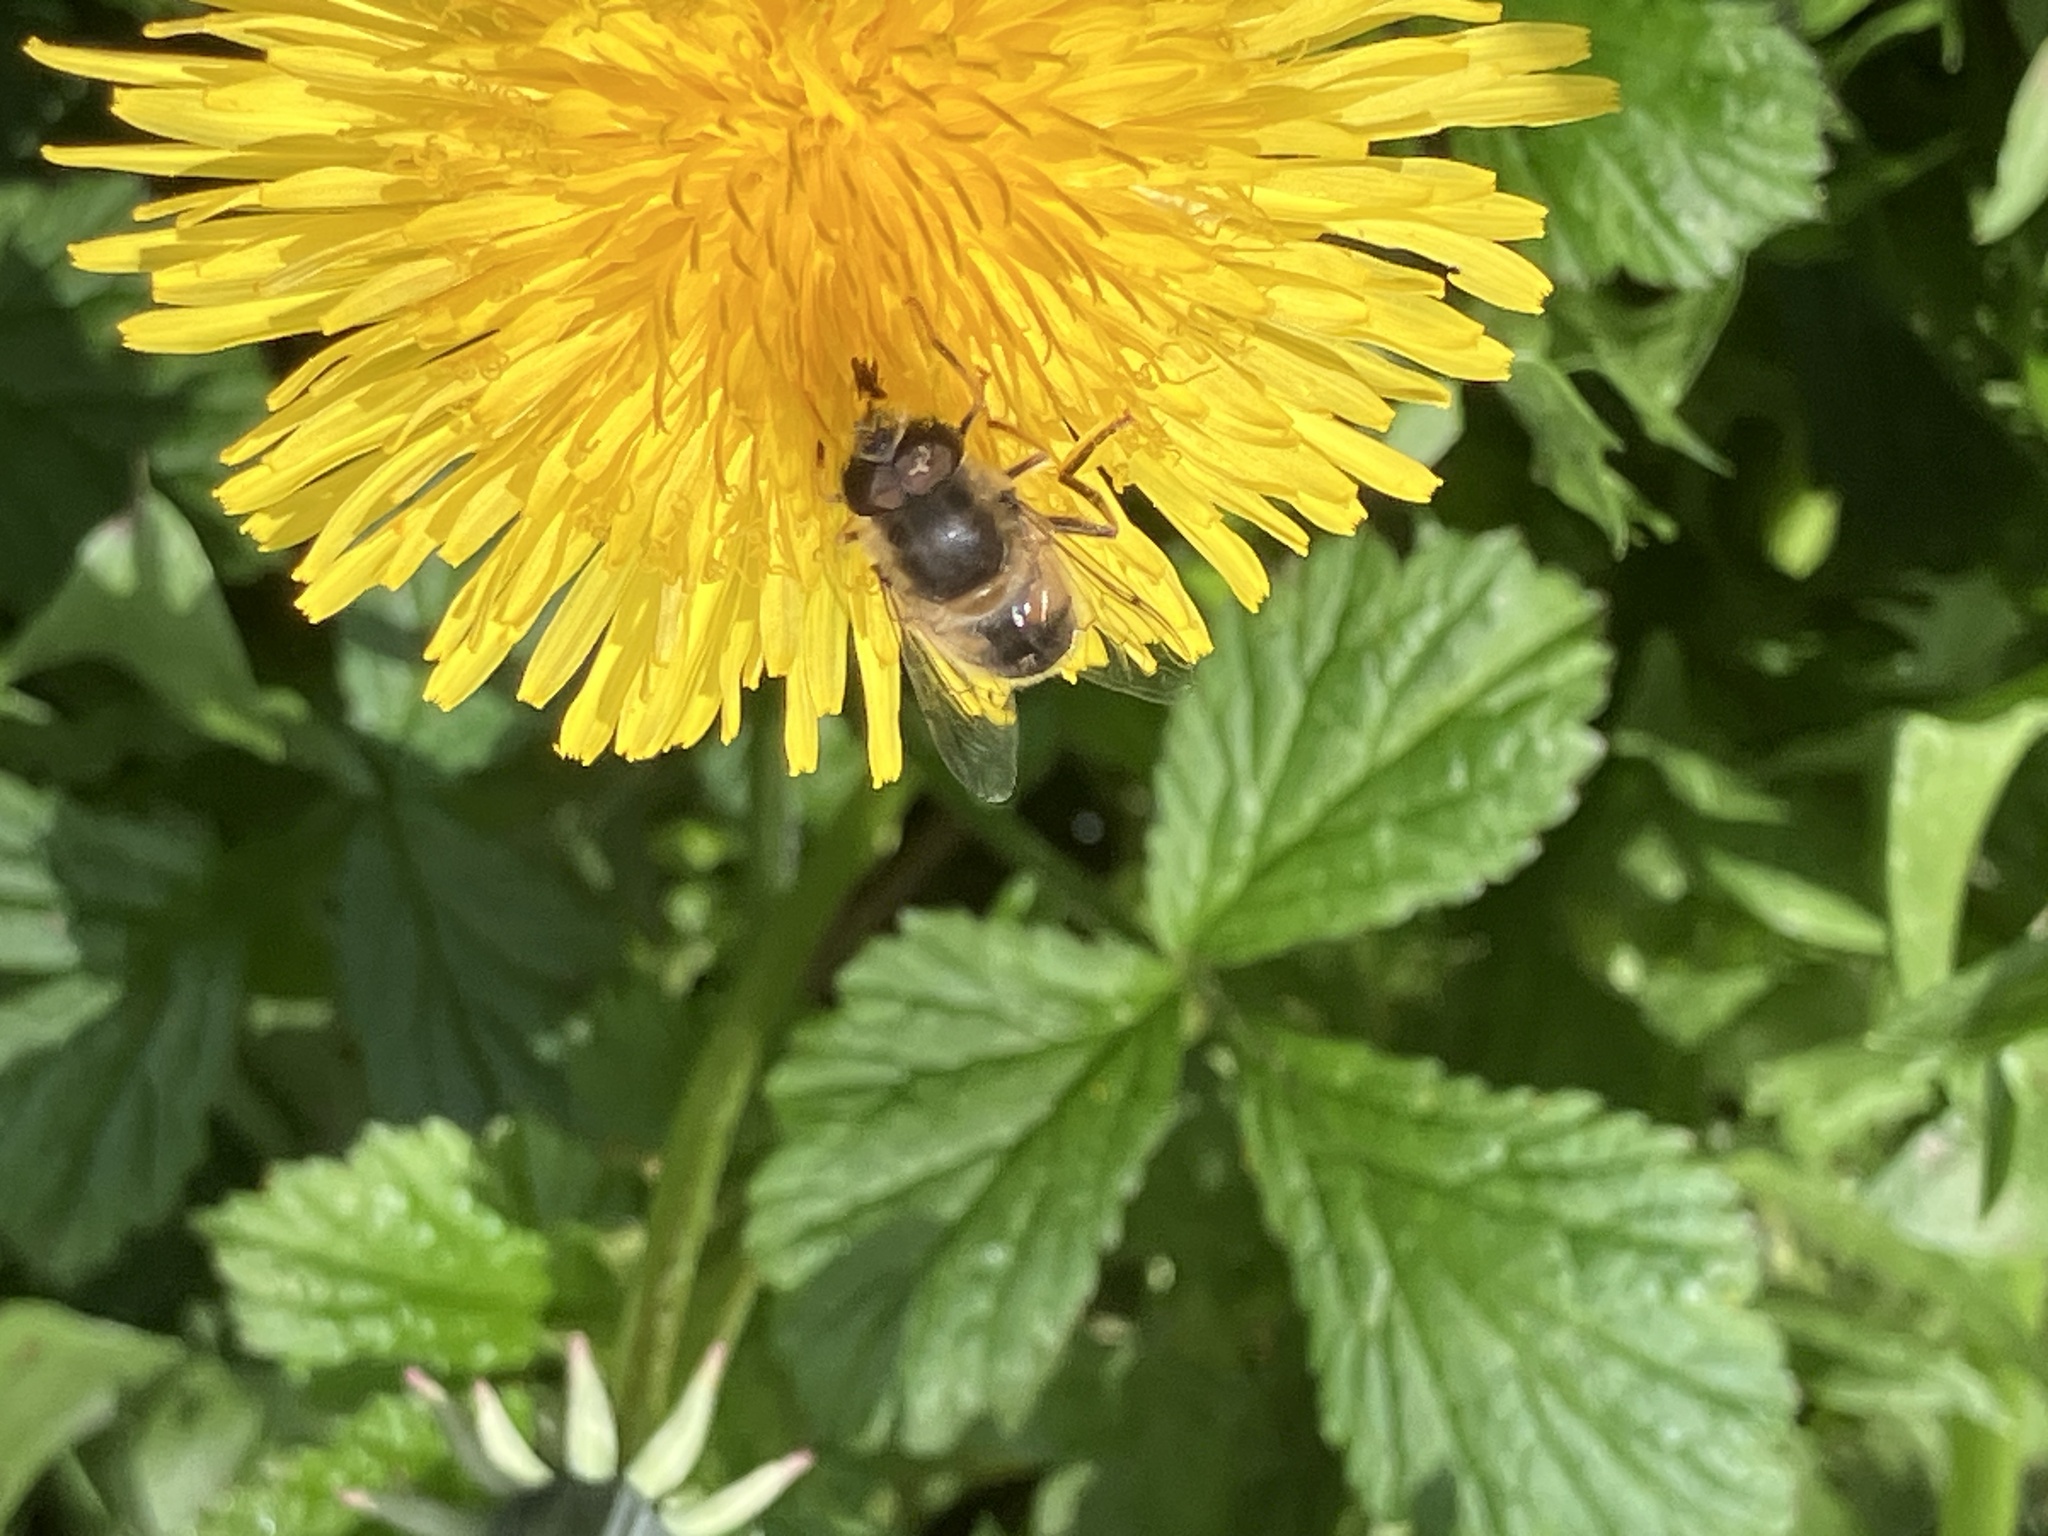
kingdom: Animalia
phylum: Arthropoda
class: Insecta
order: Diptera
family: Syrphidae
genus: Eristalis
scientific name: Eristalis pertinax
